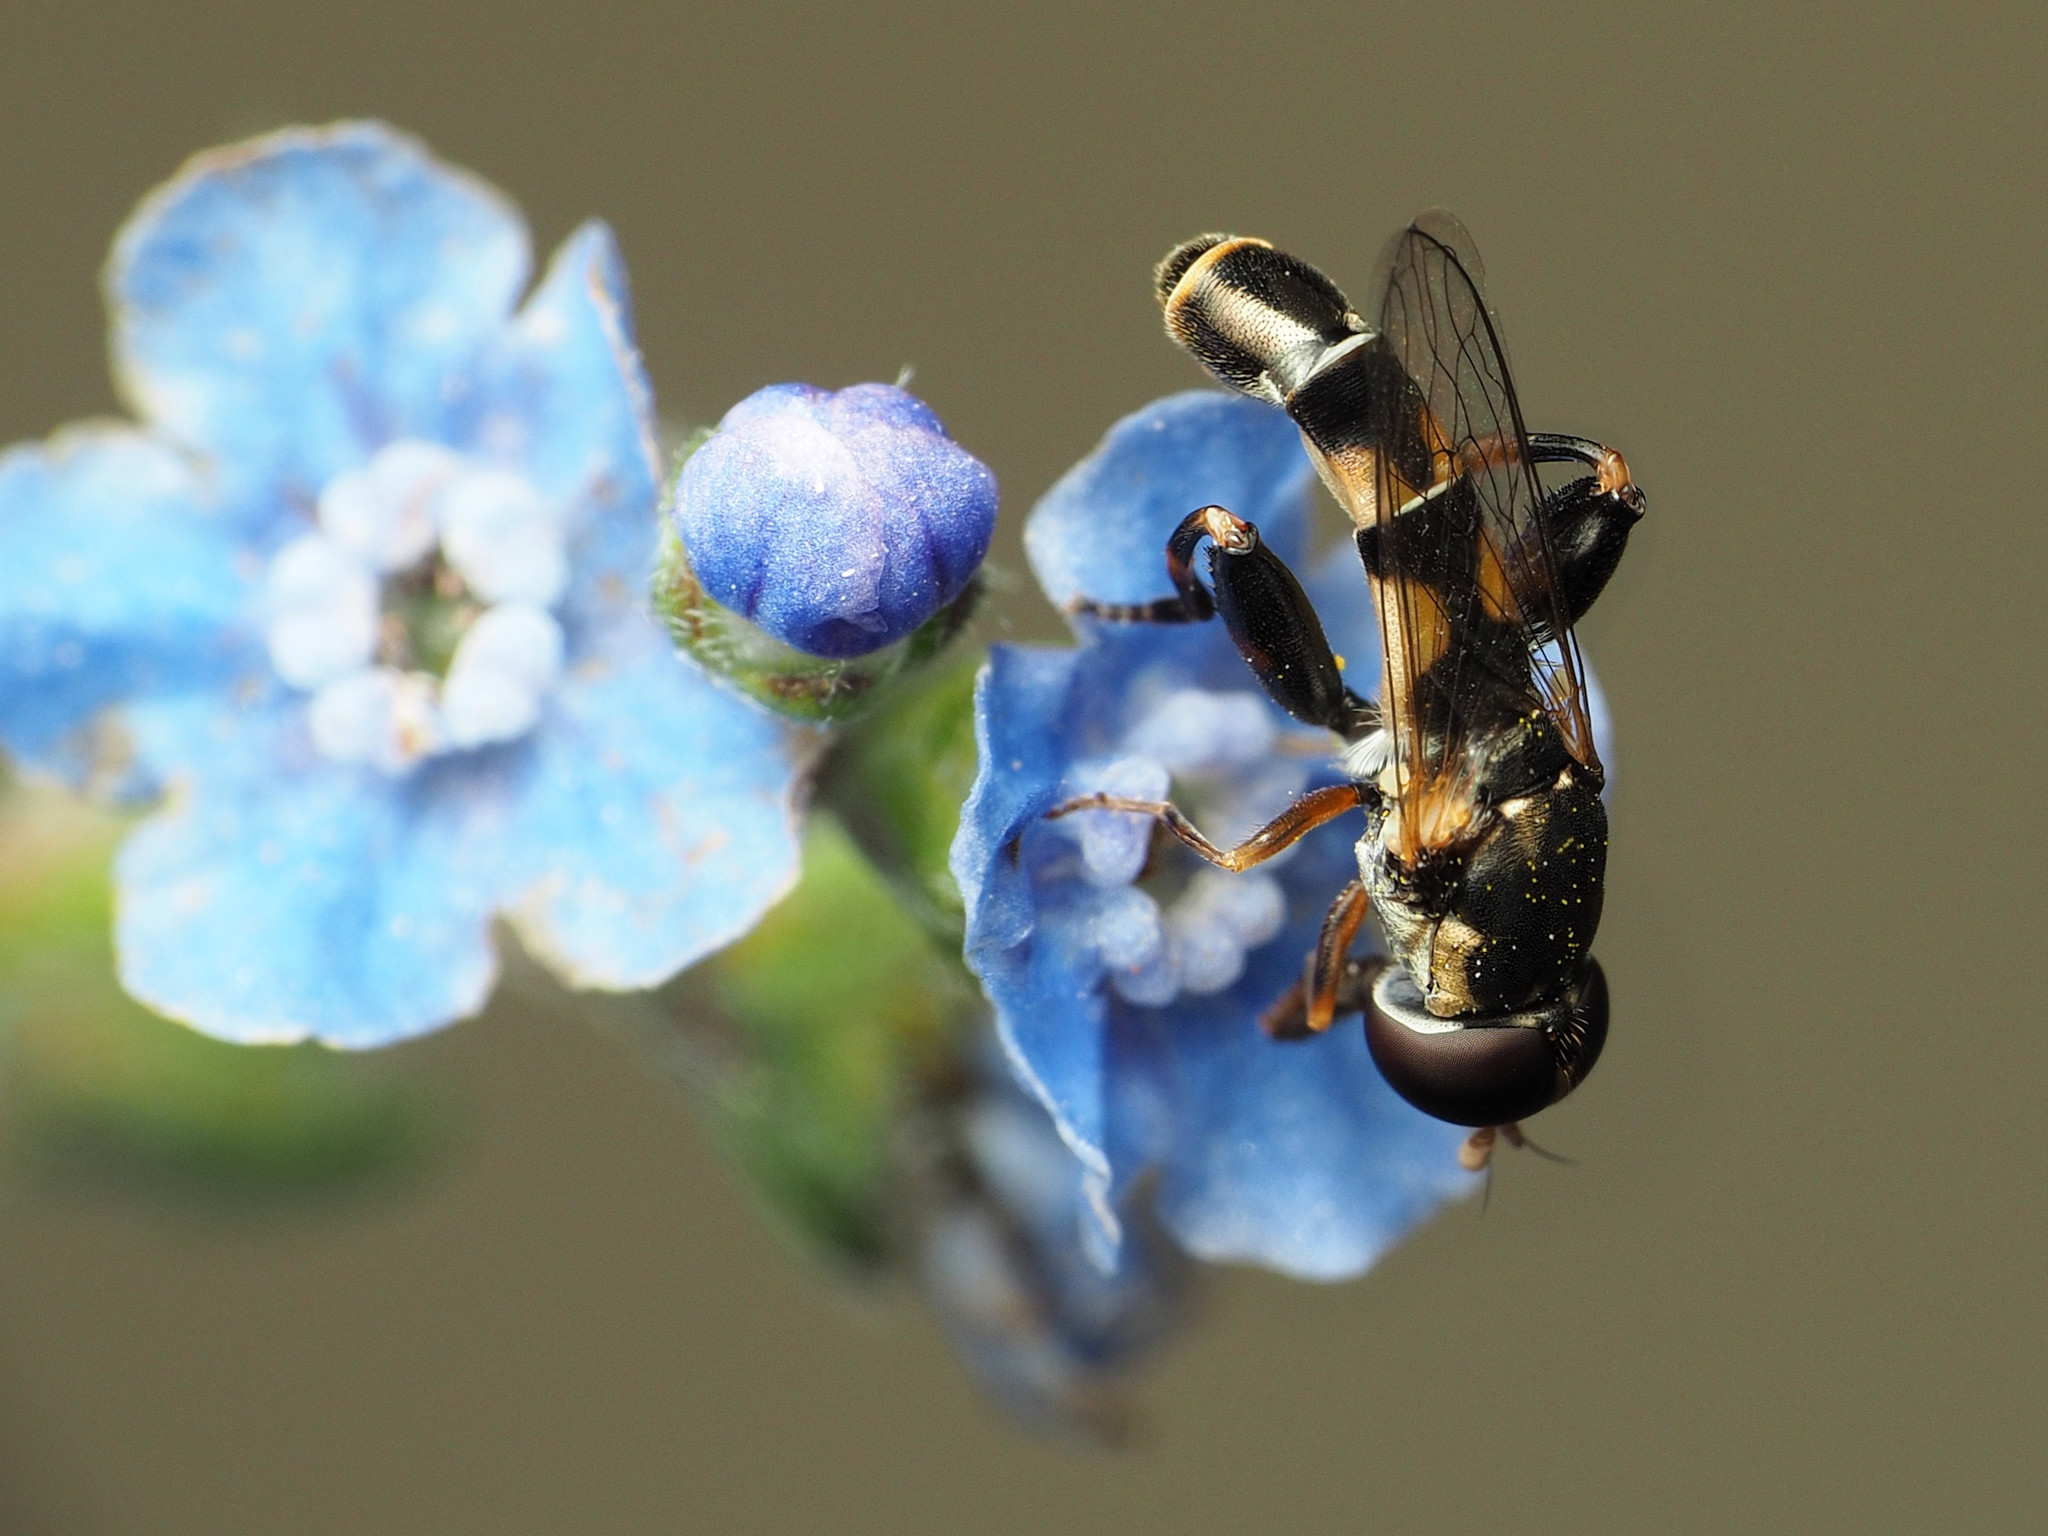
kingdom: Animalia
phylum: Arthropoda
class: Insecta
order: Diptera
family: Syrphidae
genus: Syritta
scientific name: Syritta pipiens
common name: Hover fly
